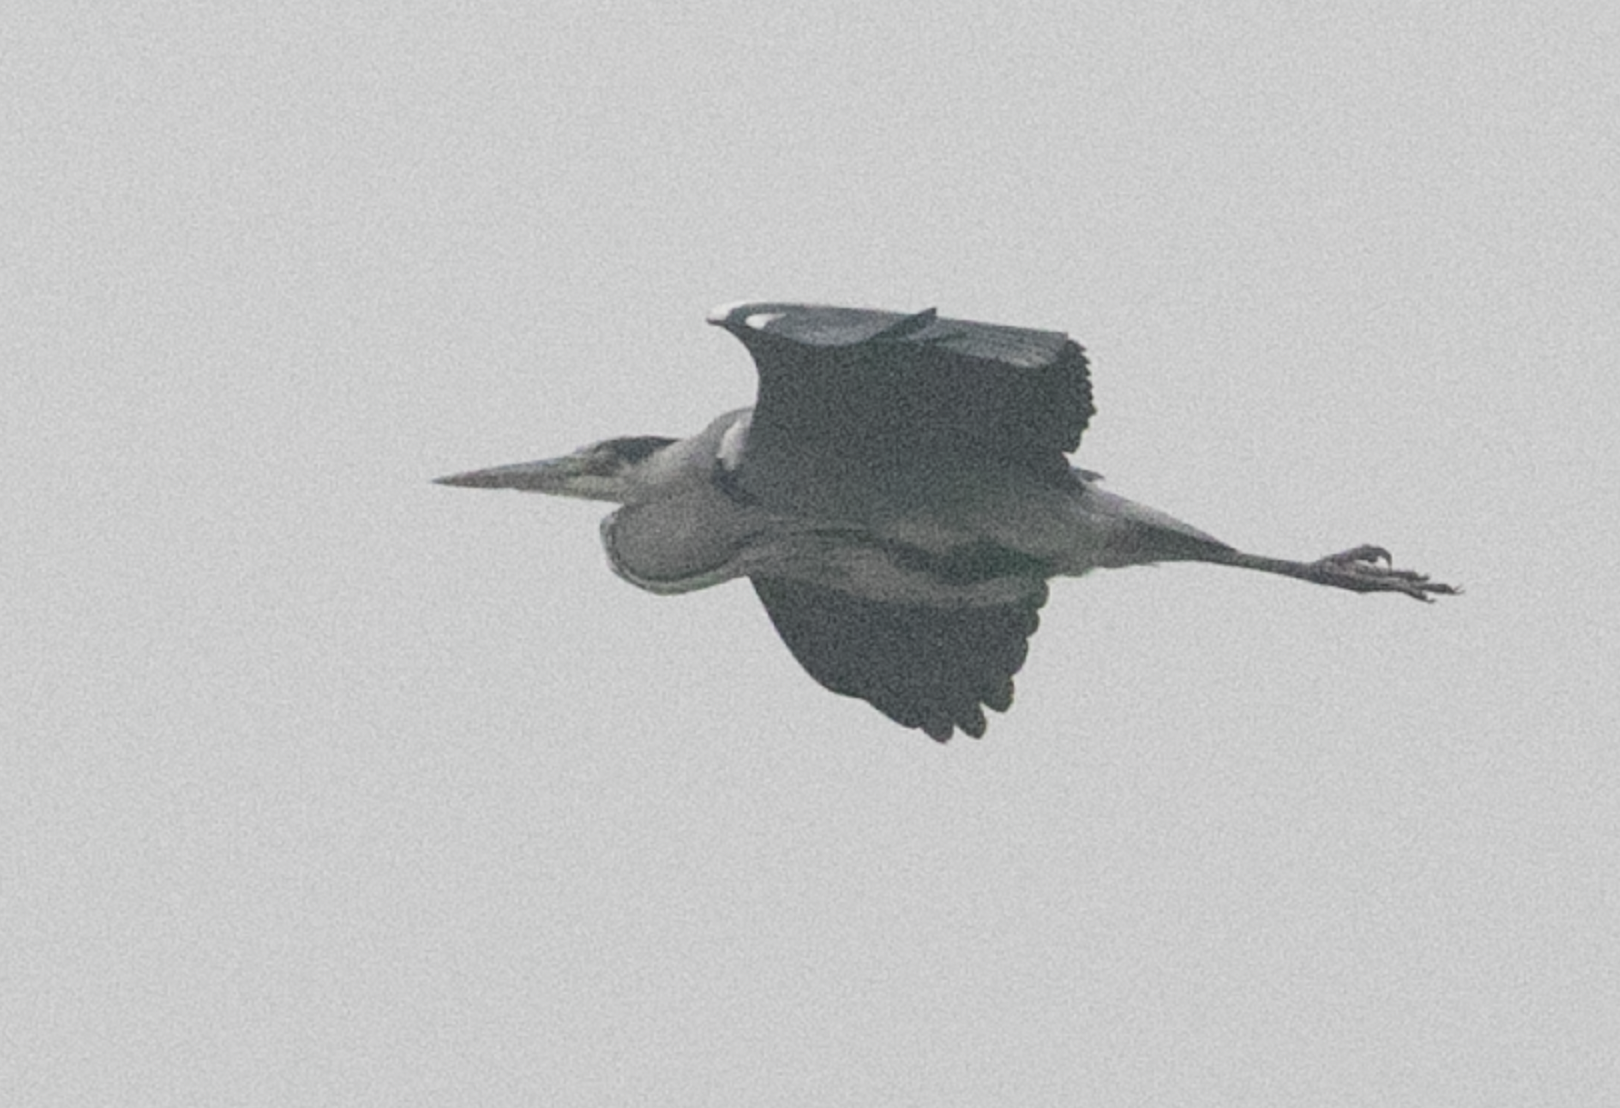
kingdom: Animalia
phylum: Chordata
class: Aves
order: Pelecaniformes
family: Ardeidae
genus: Ardea
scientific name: Ardea cinerea
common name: Grey heron
